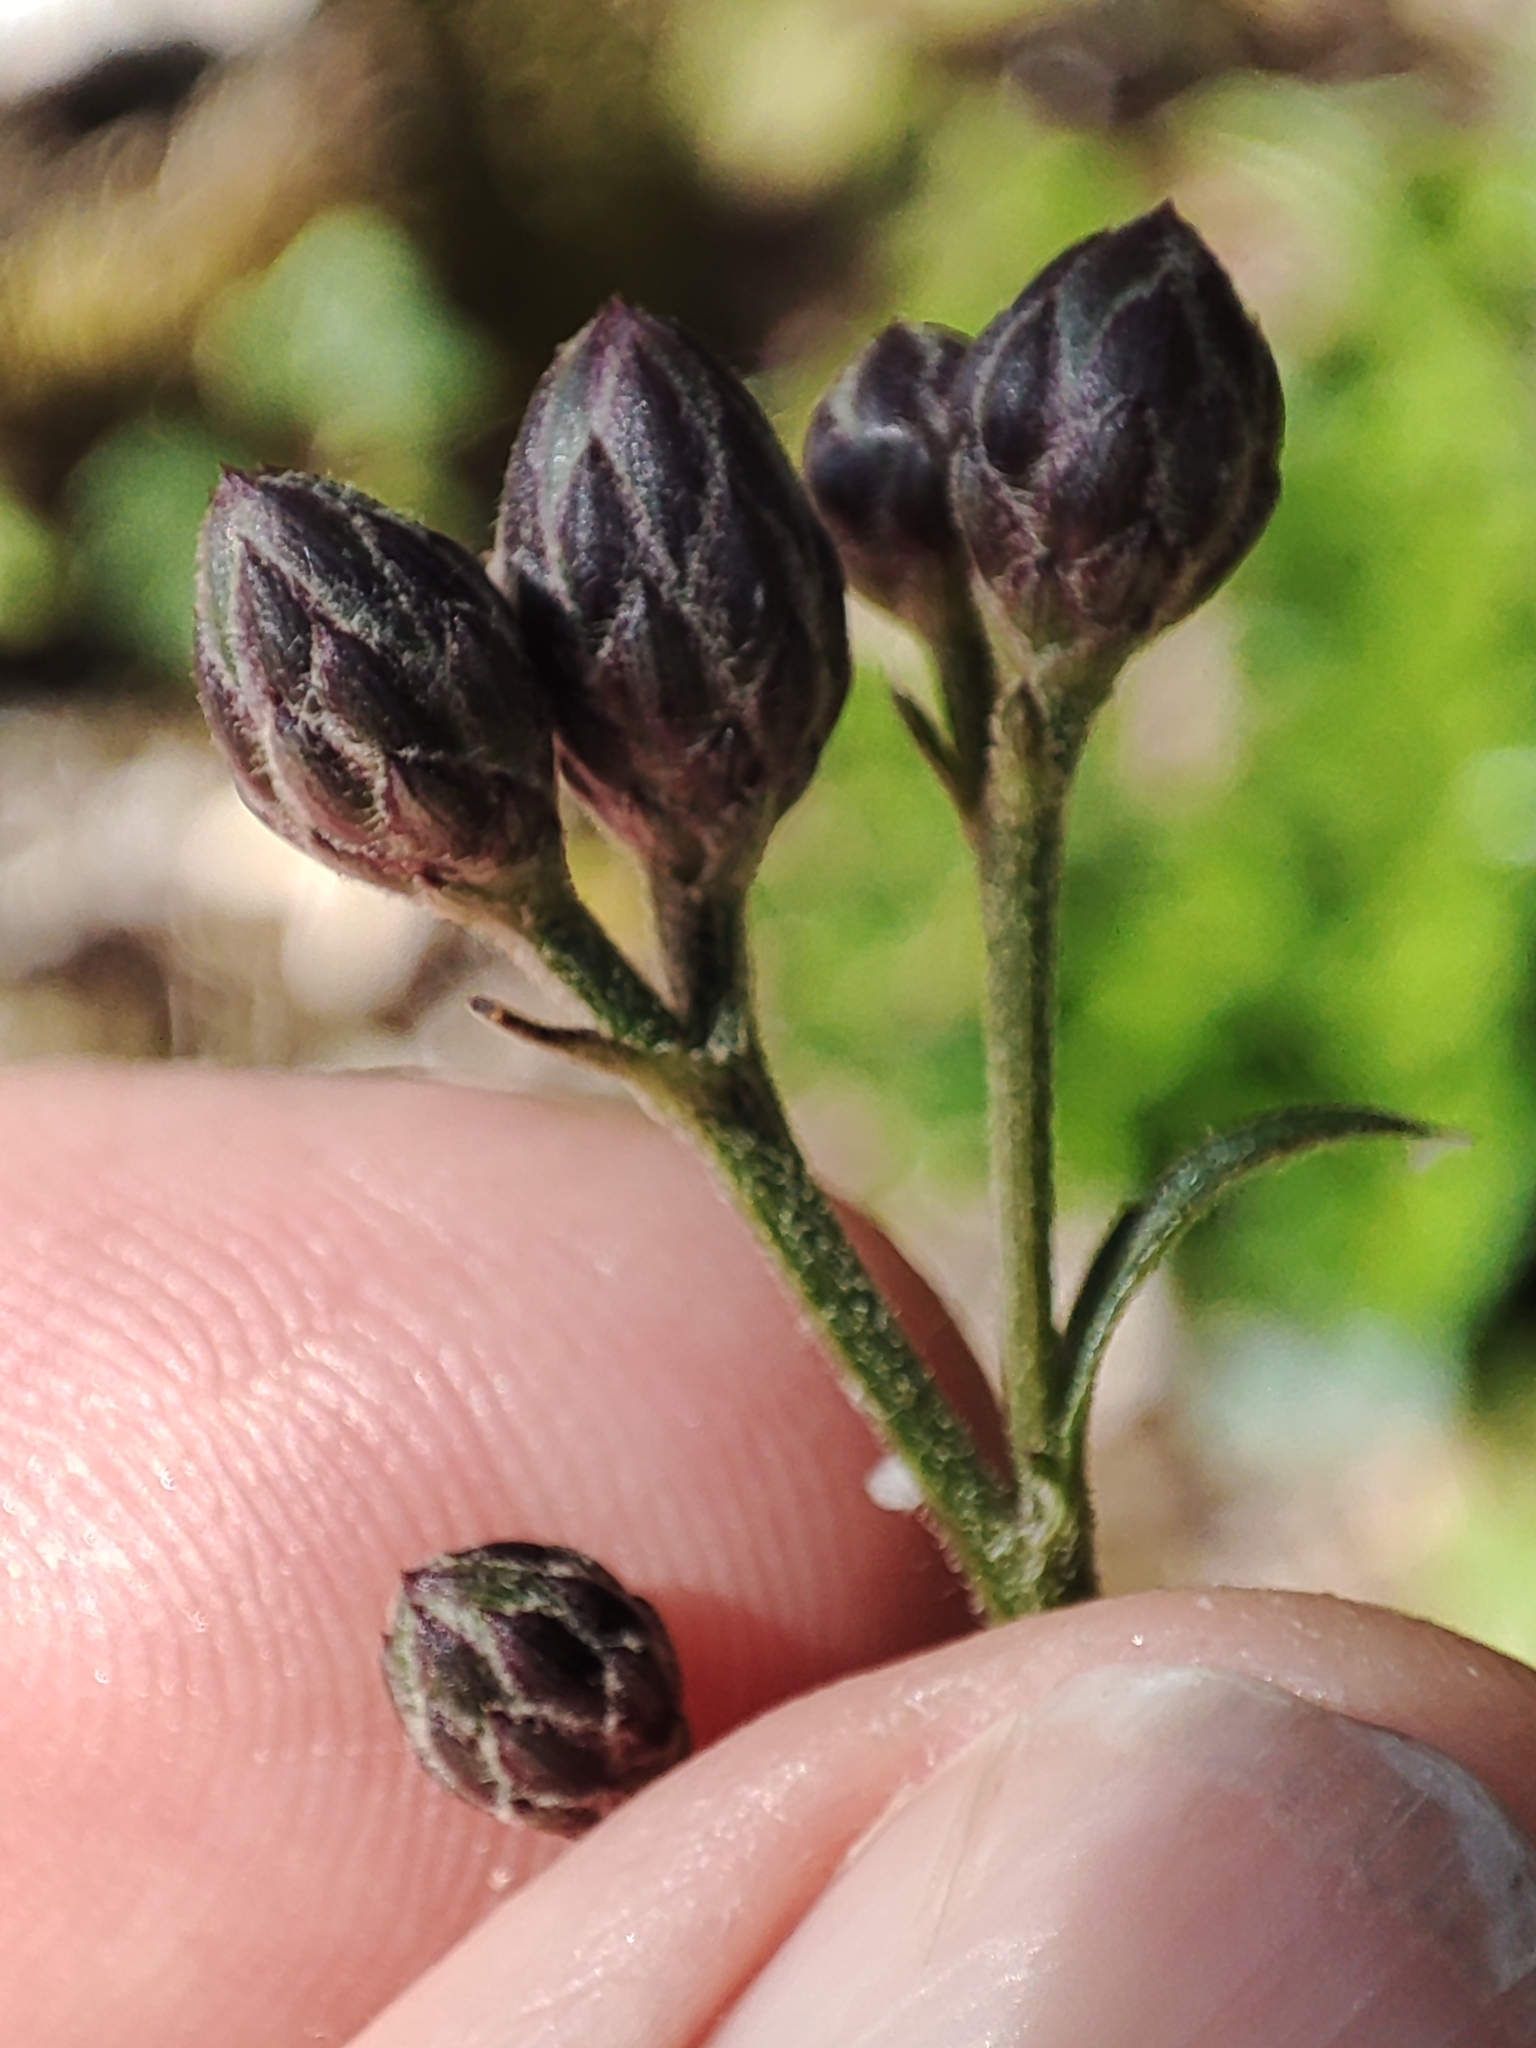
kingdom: Plantae
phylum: Tracheophyta
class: Magnoliopsida
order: Asterales
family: Asteraceae
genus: Serratula
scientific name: Serratula tinctoria
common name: Saw-wort
